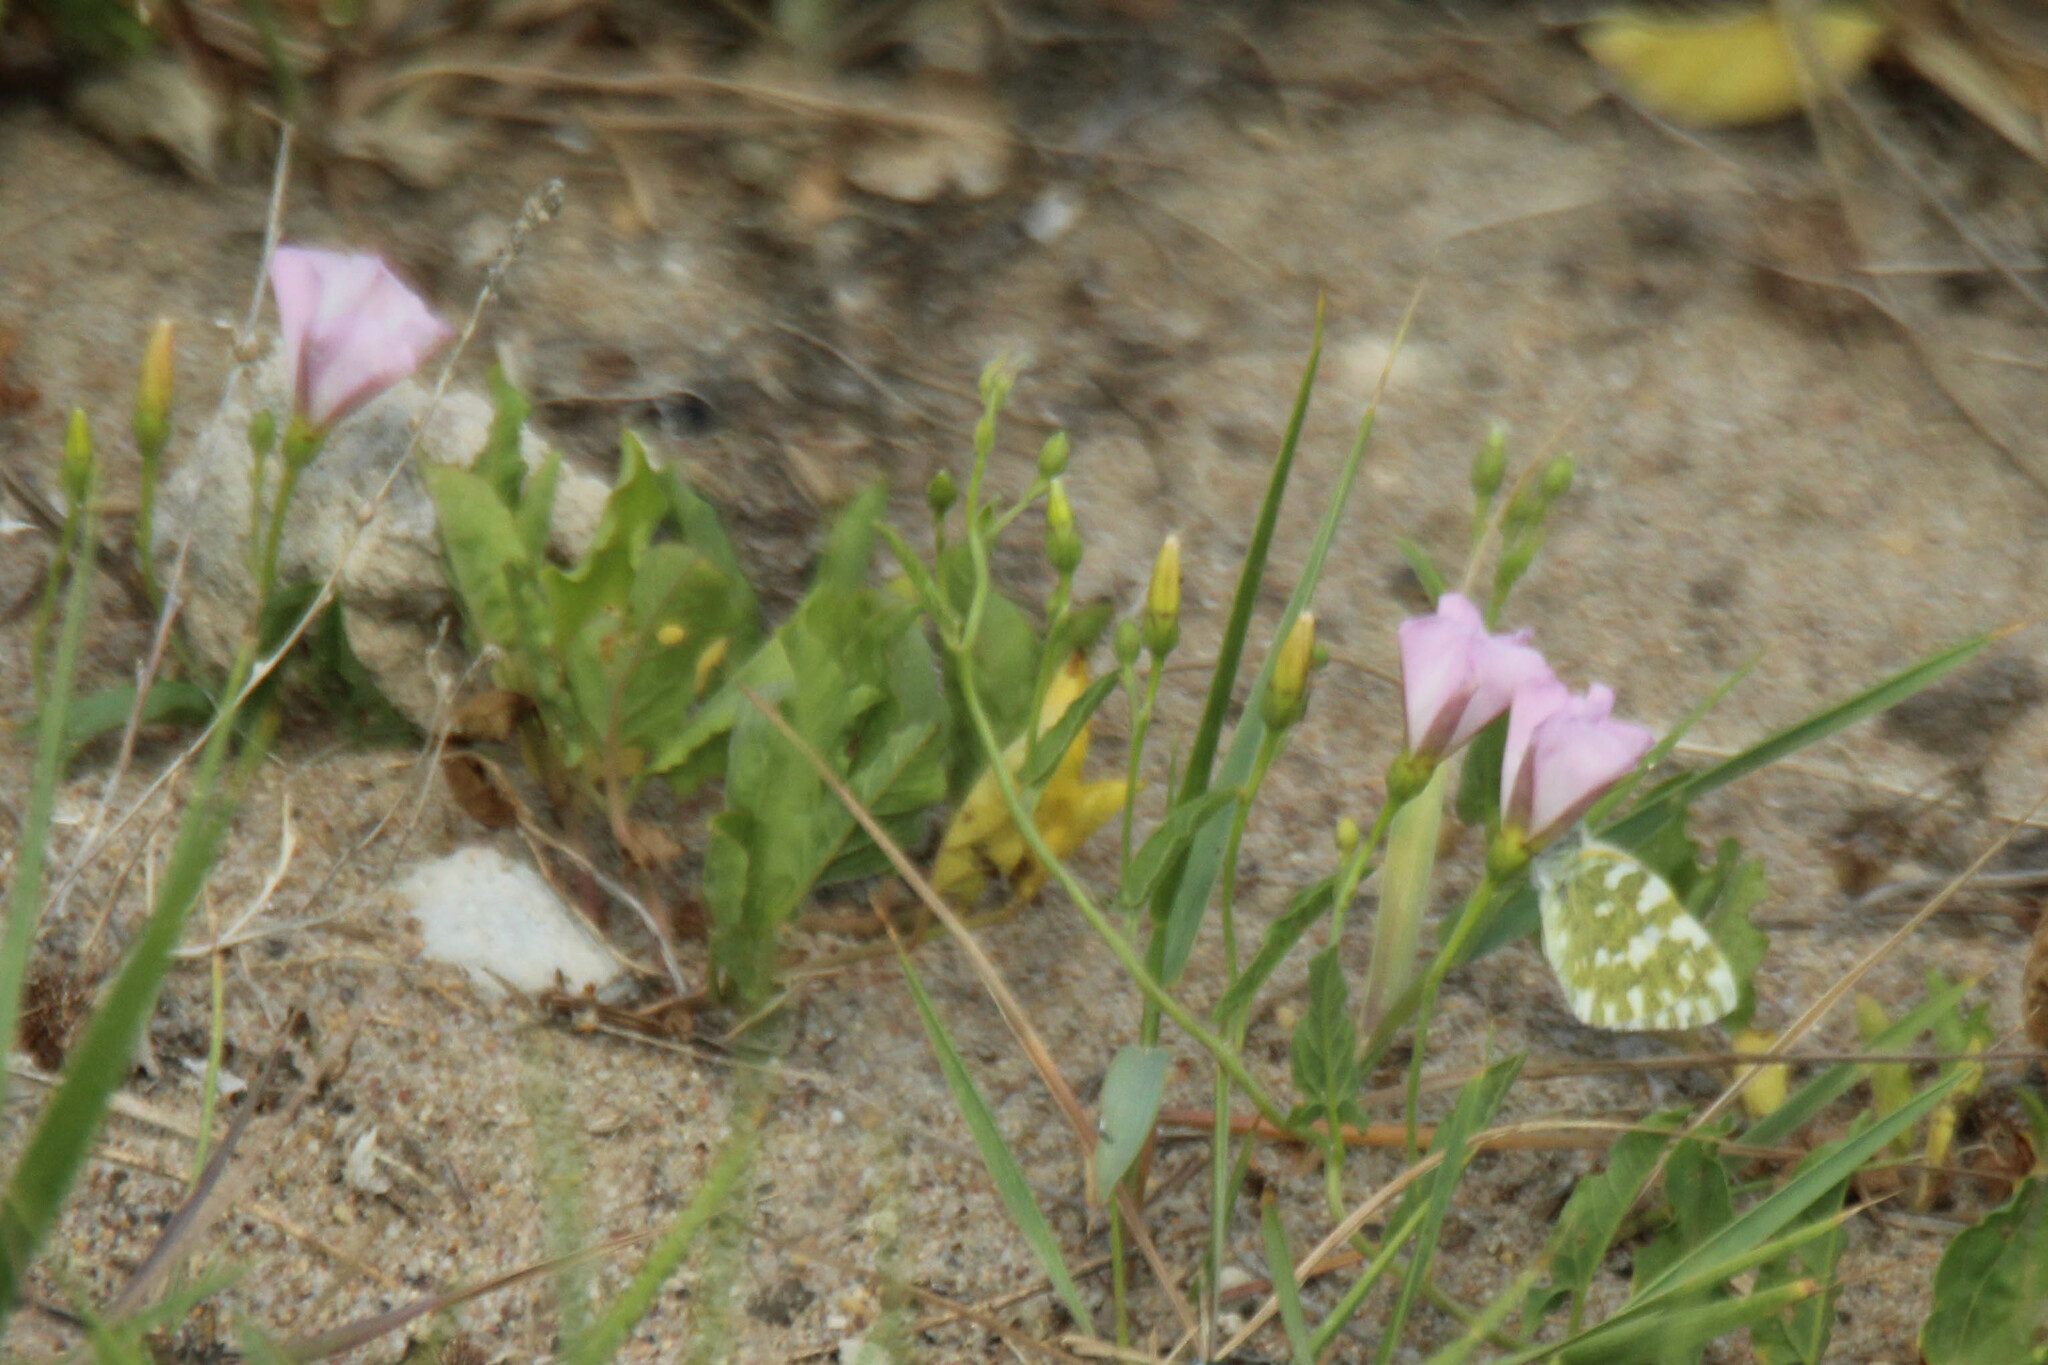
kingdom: Plantae
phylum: Tracheophyta
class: Magnoliopsida
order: Solanales
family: Convolvulaceae
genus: Convolvulus
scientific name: Convolvulus arvensis
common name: Field bindweed
